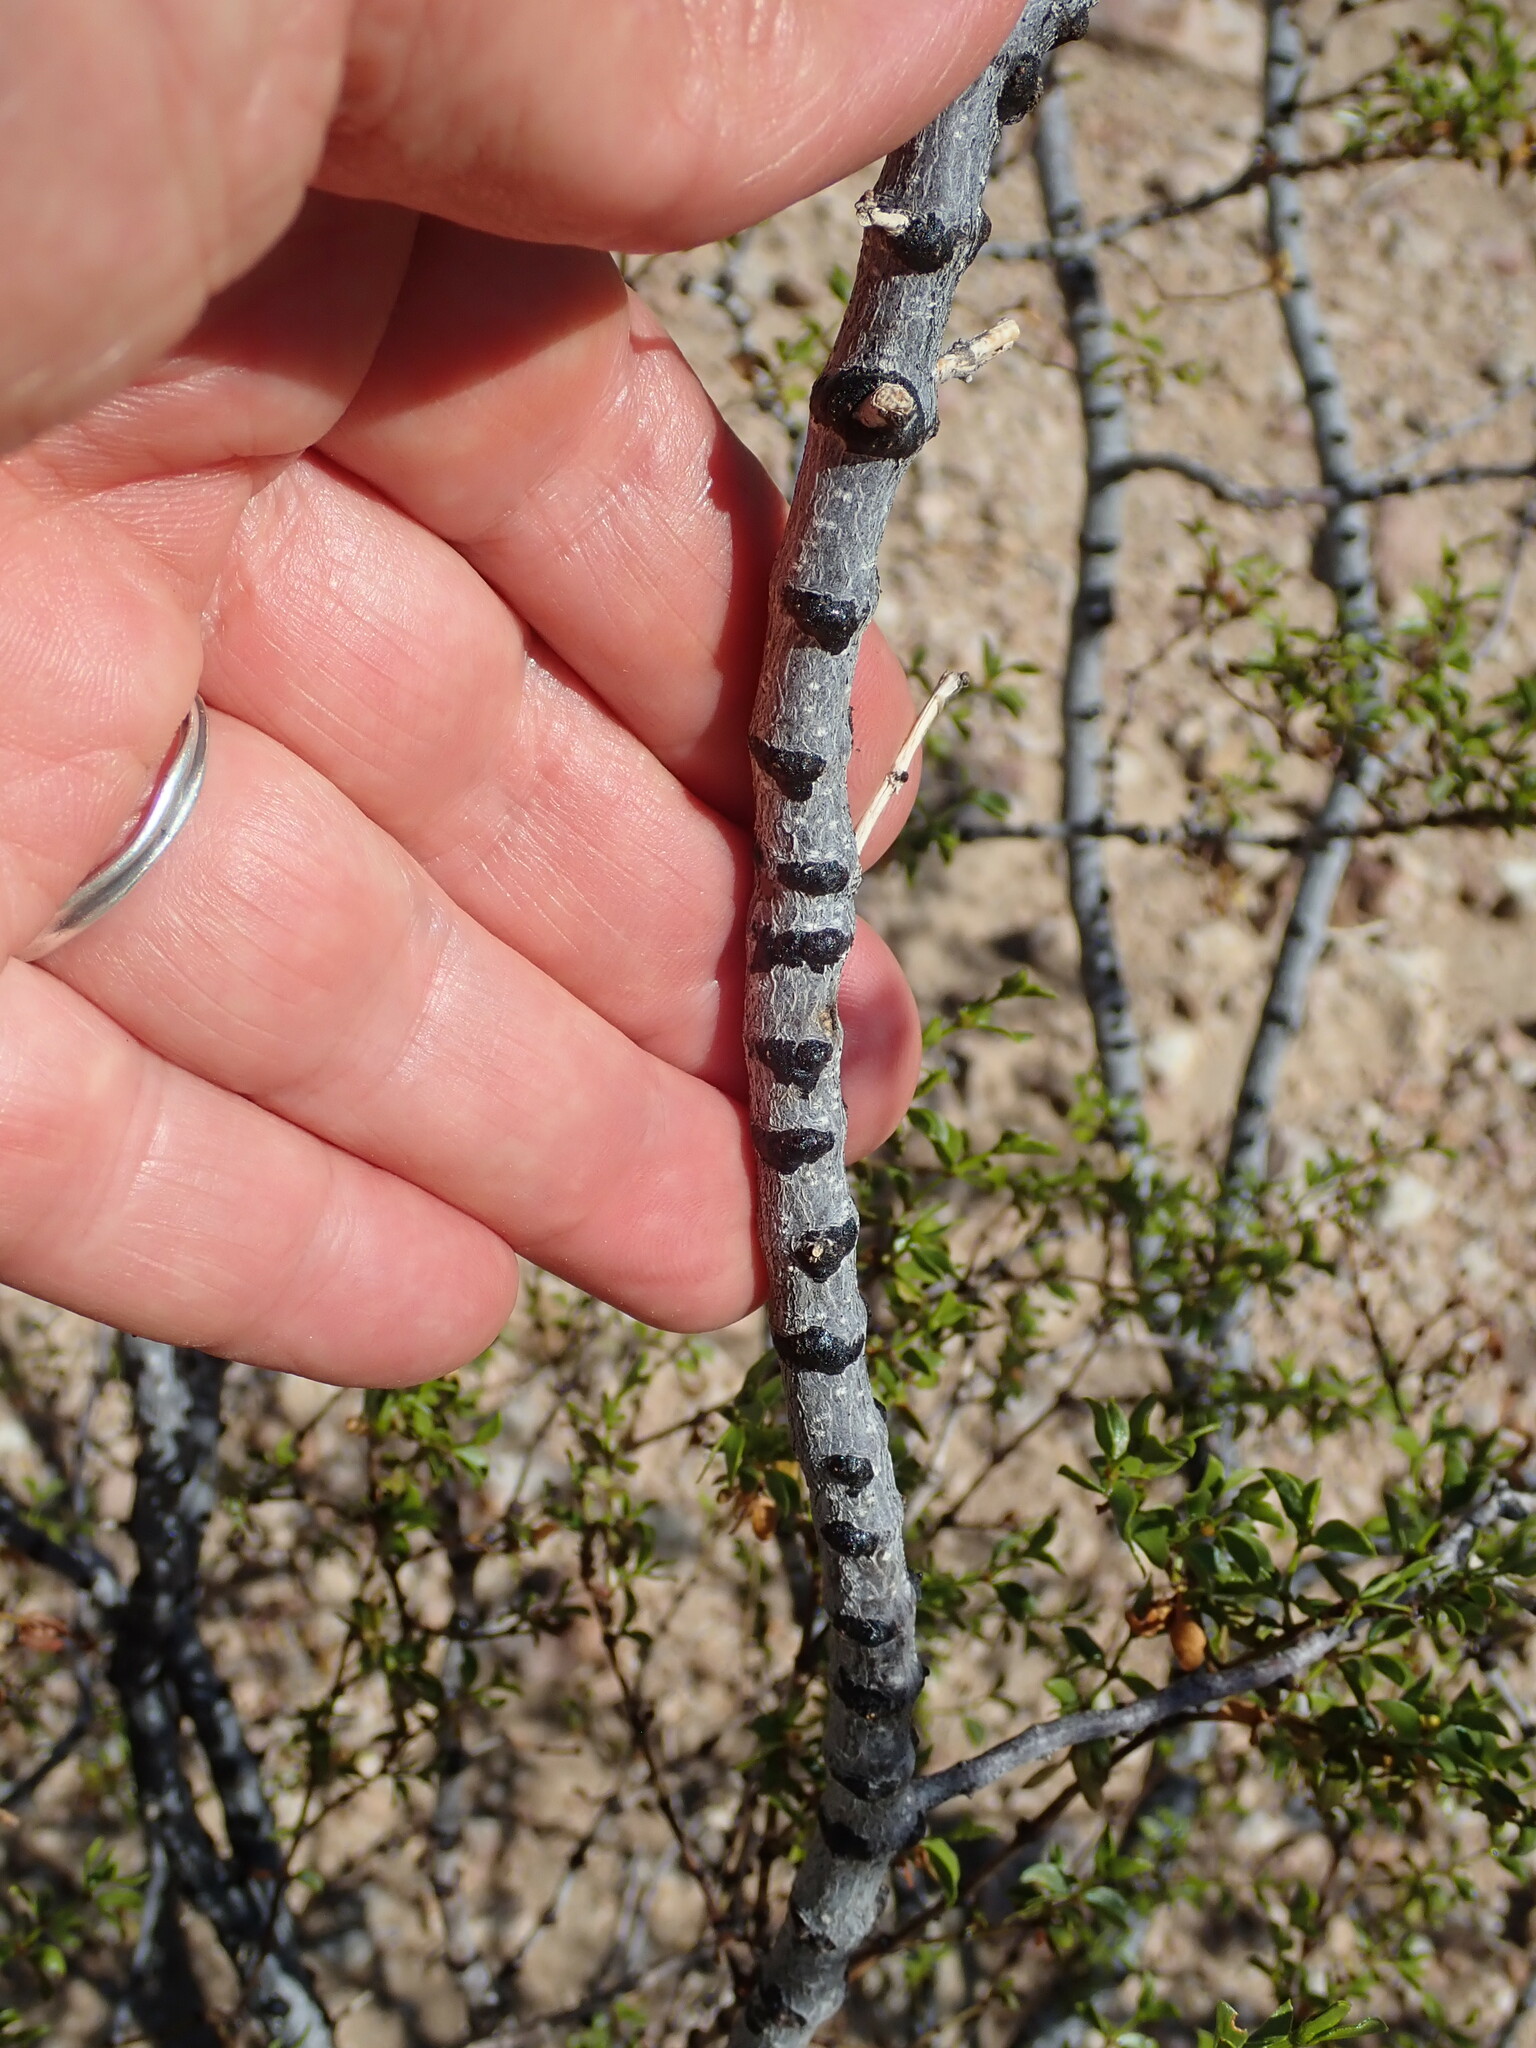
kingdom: Plantae
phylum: Tracheophyta
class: Magnoliopsida
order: Zygophyllales
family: Zygophyllaceae
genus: Larrea
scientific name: Larrea tridentata
